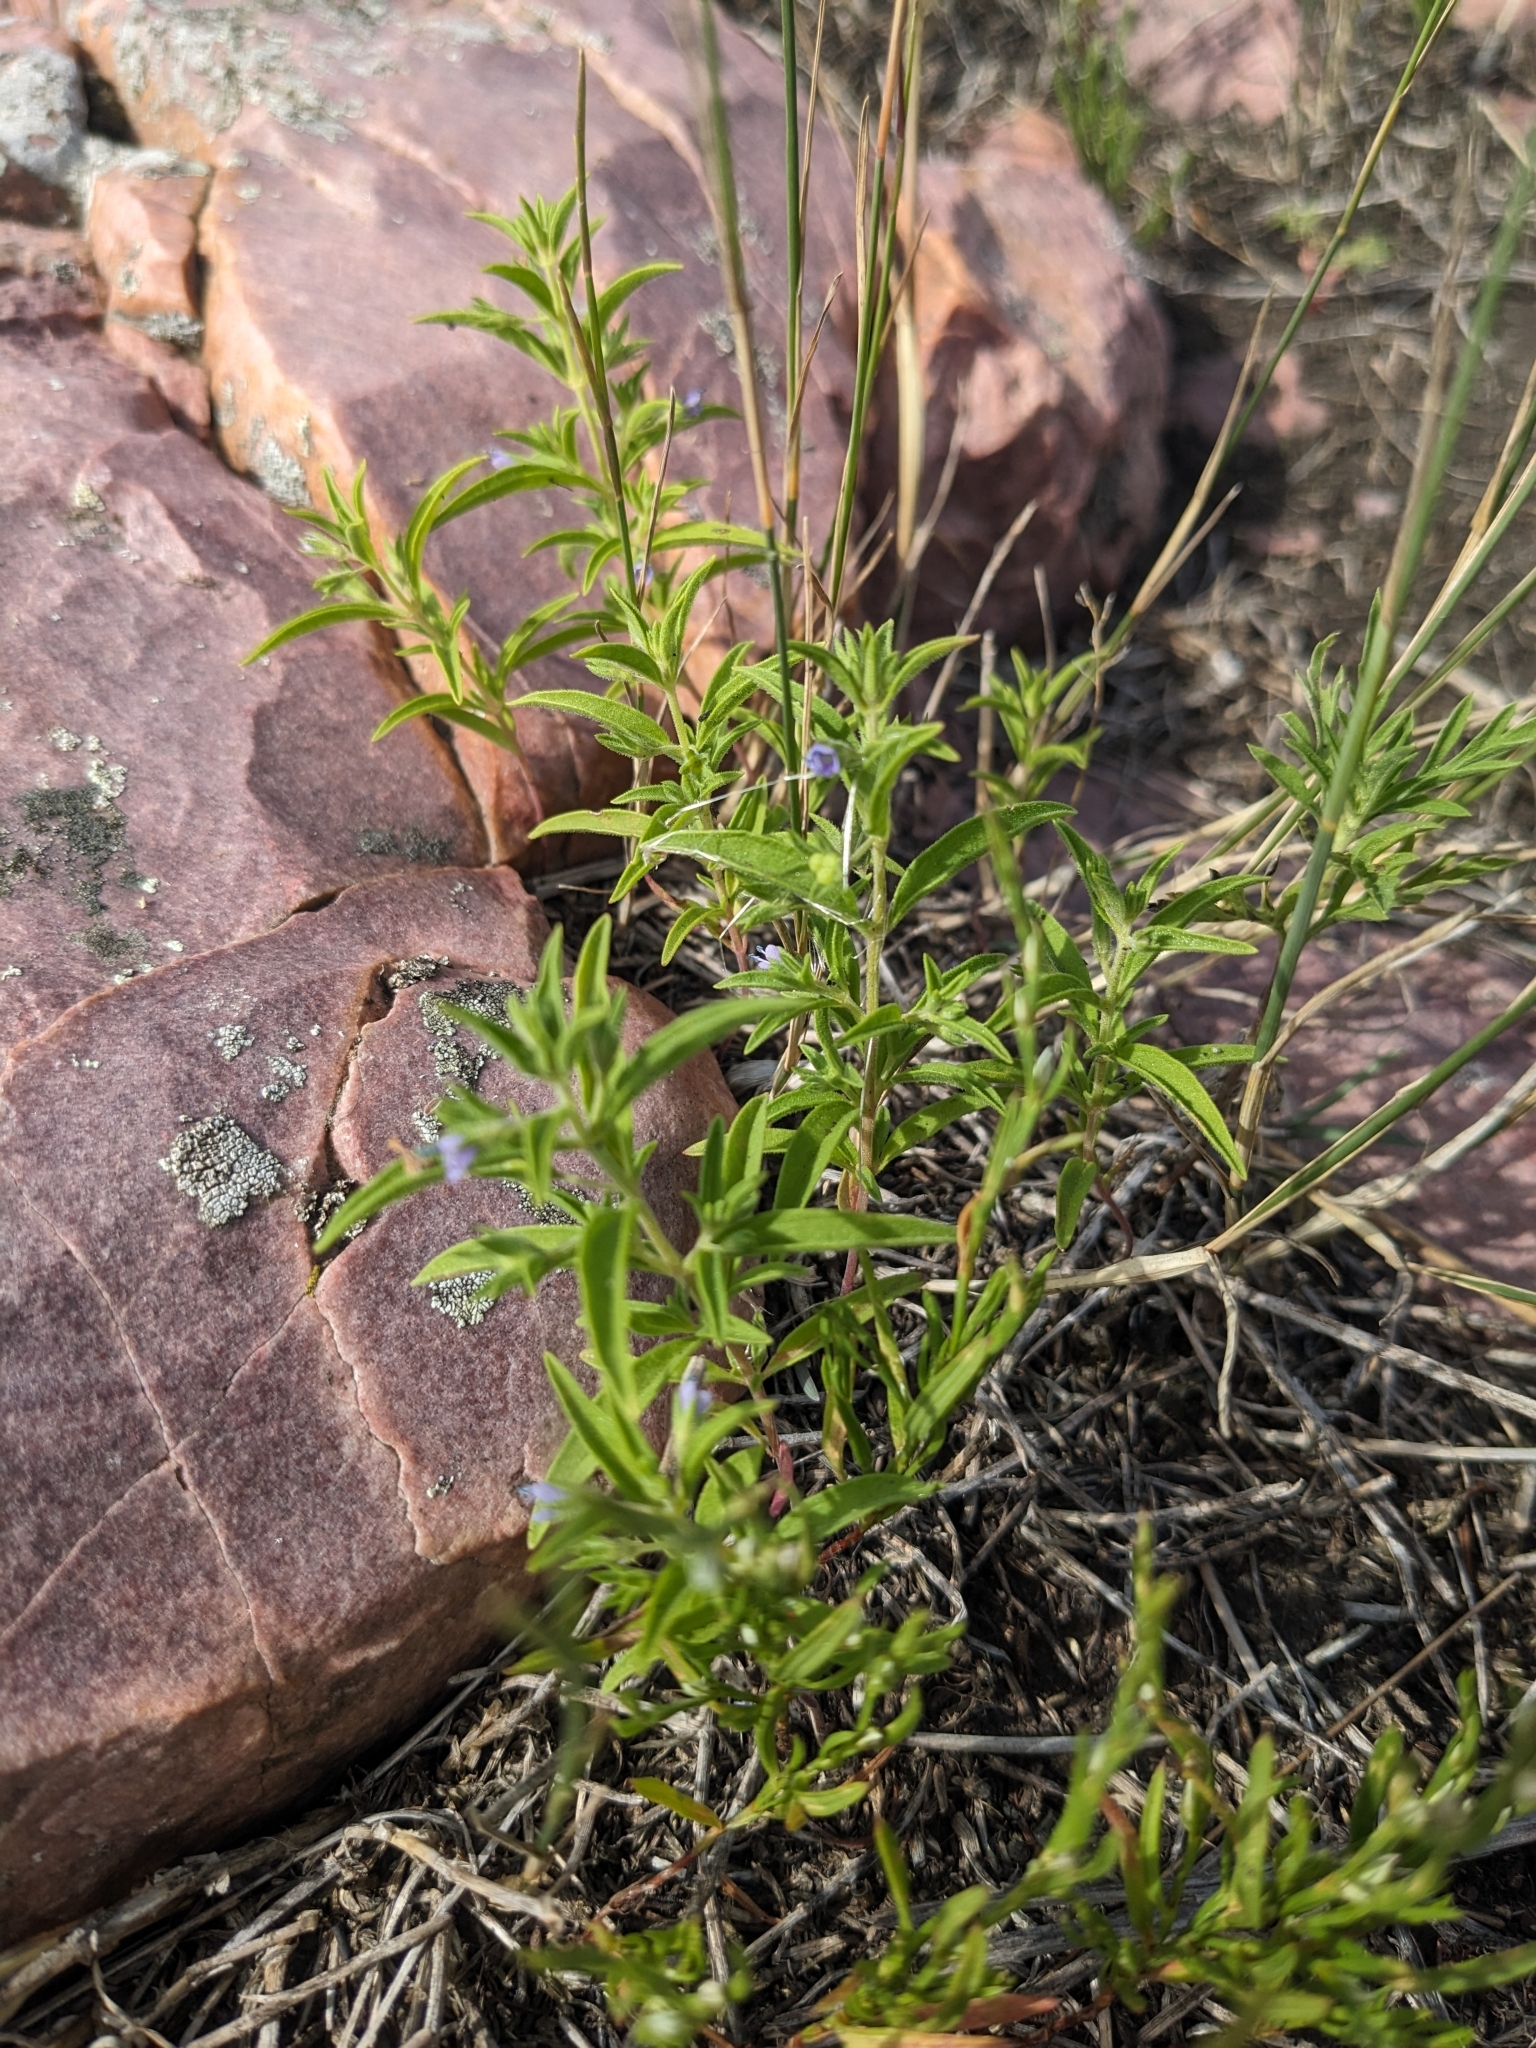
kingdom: Plantae
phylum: Tracheophyta
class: Magnoliopsida
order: Lamiales
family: Lamiaceae
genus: Trichostema
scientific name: Trichostema brachiatum
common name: False pennyroyal
